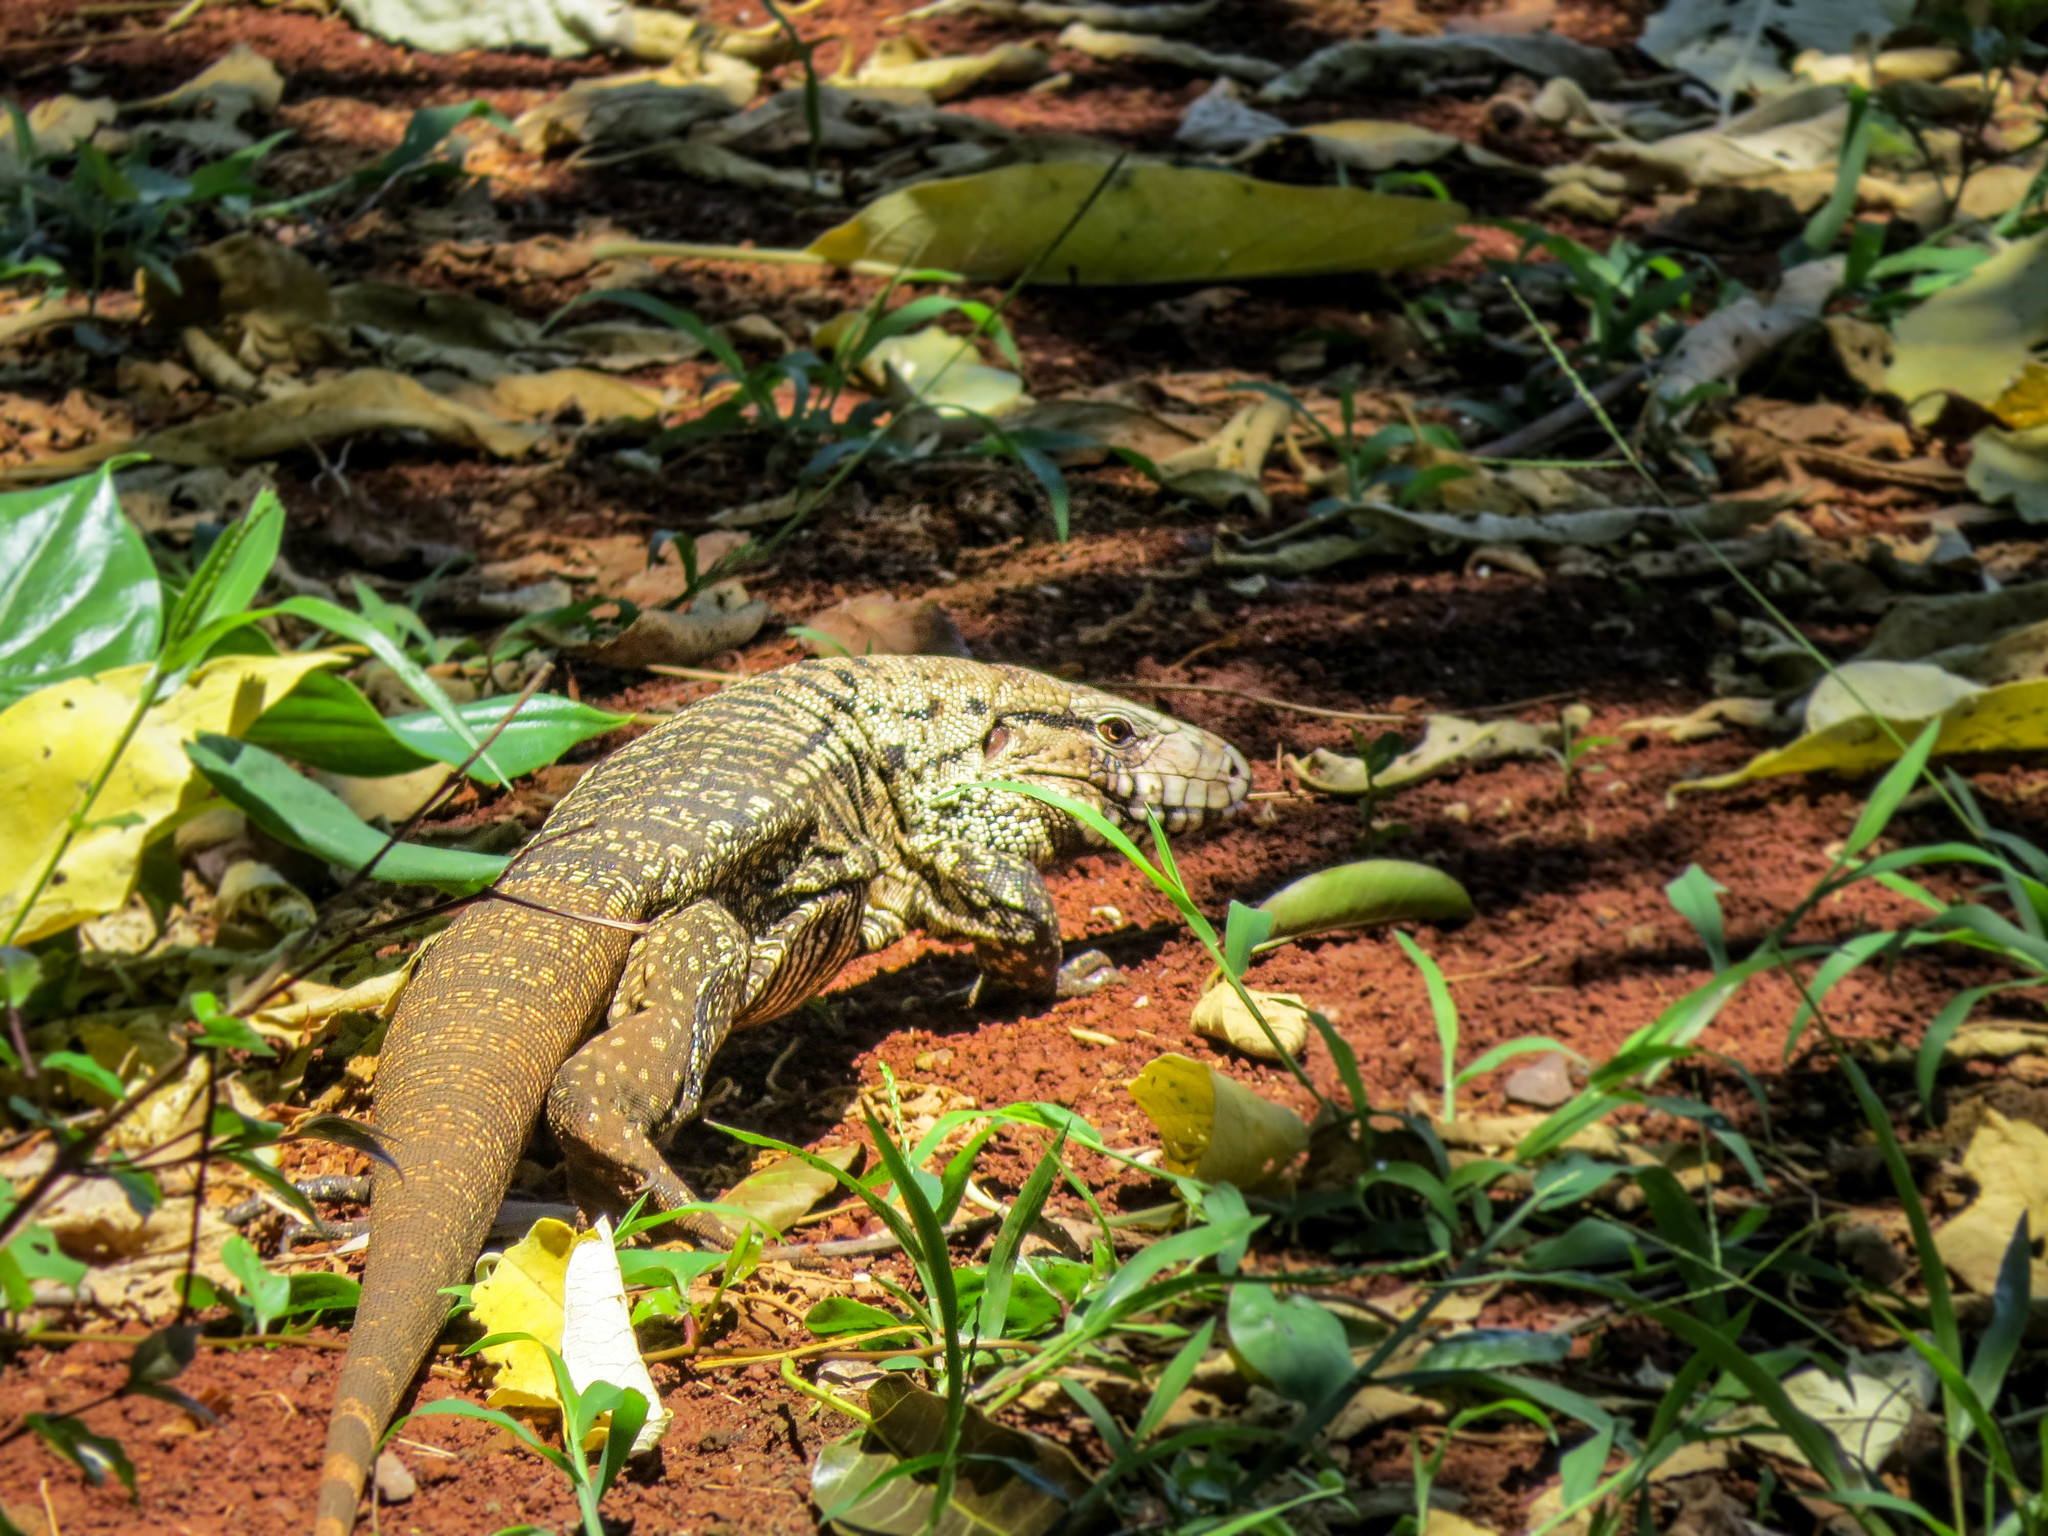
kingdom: Animalia
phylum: Chordata
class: Squamata
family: Teiidae
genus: Salvator
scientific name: Salvator merianae
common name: Argentine black and white tegu
